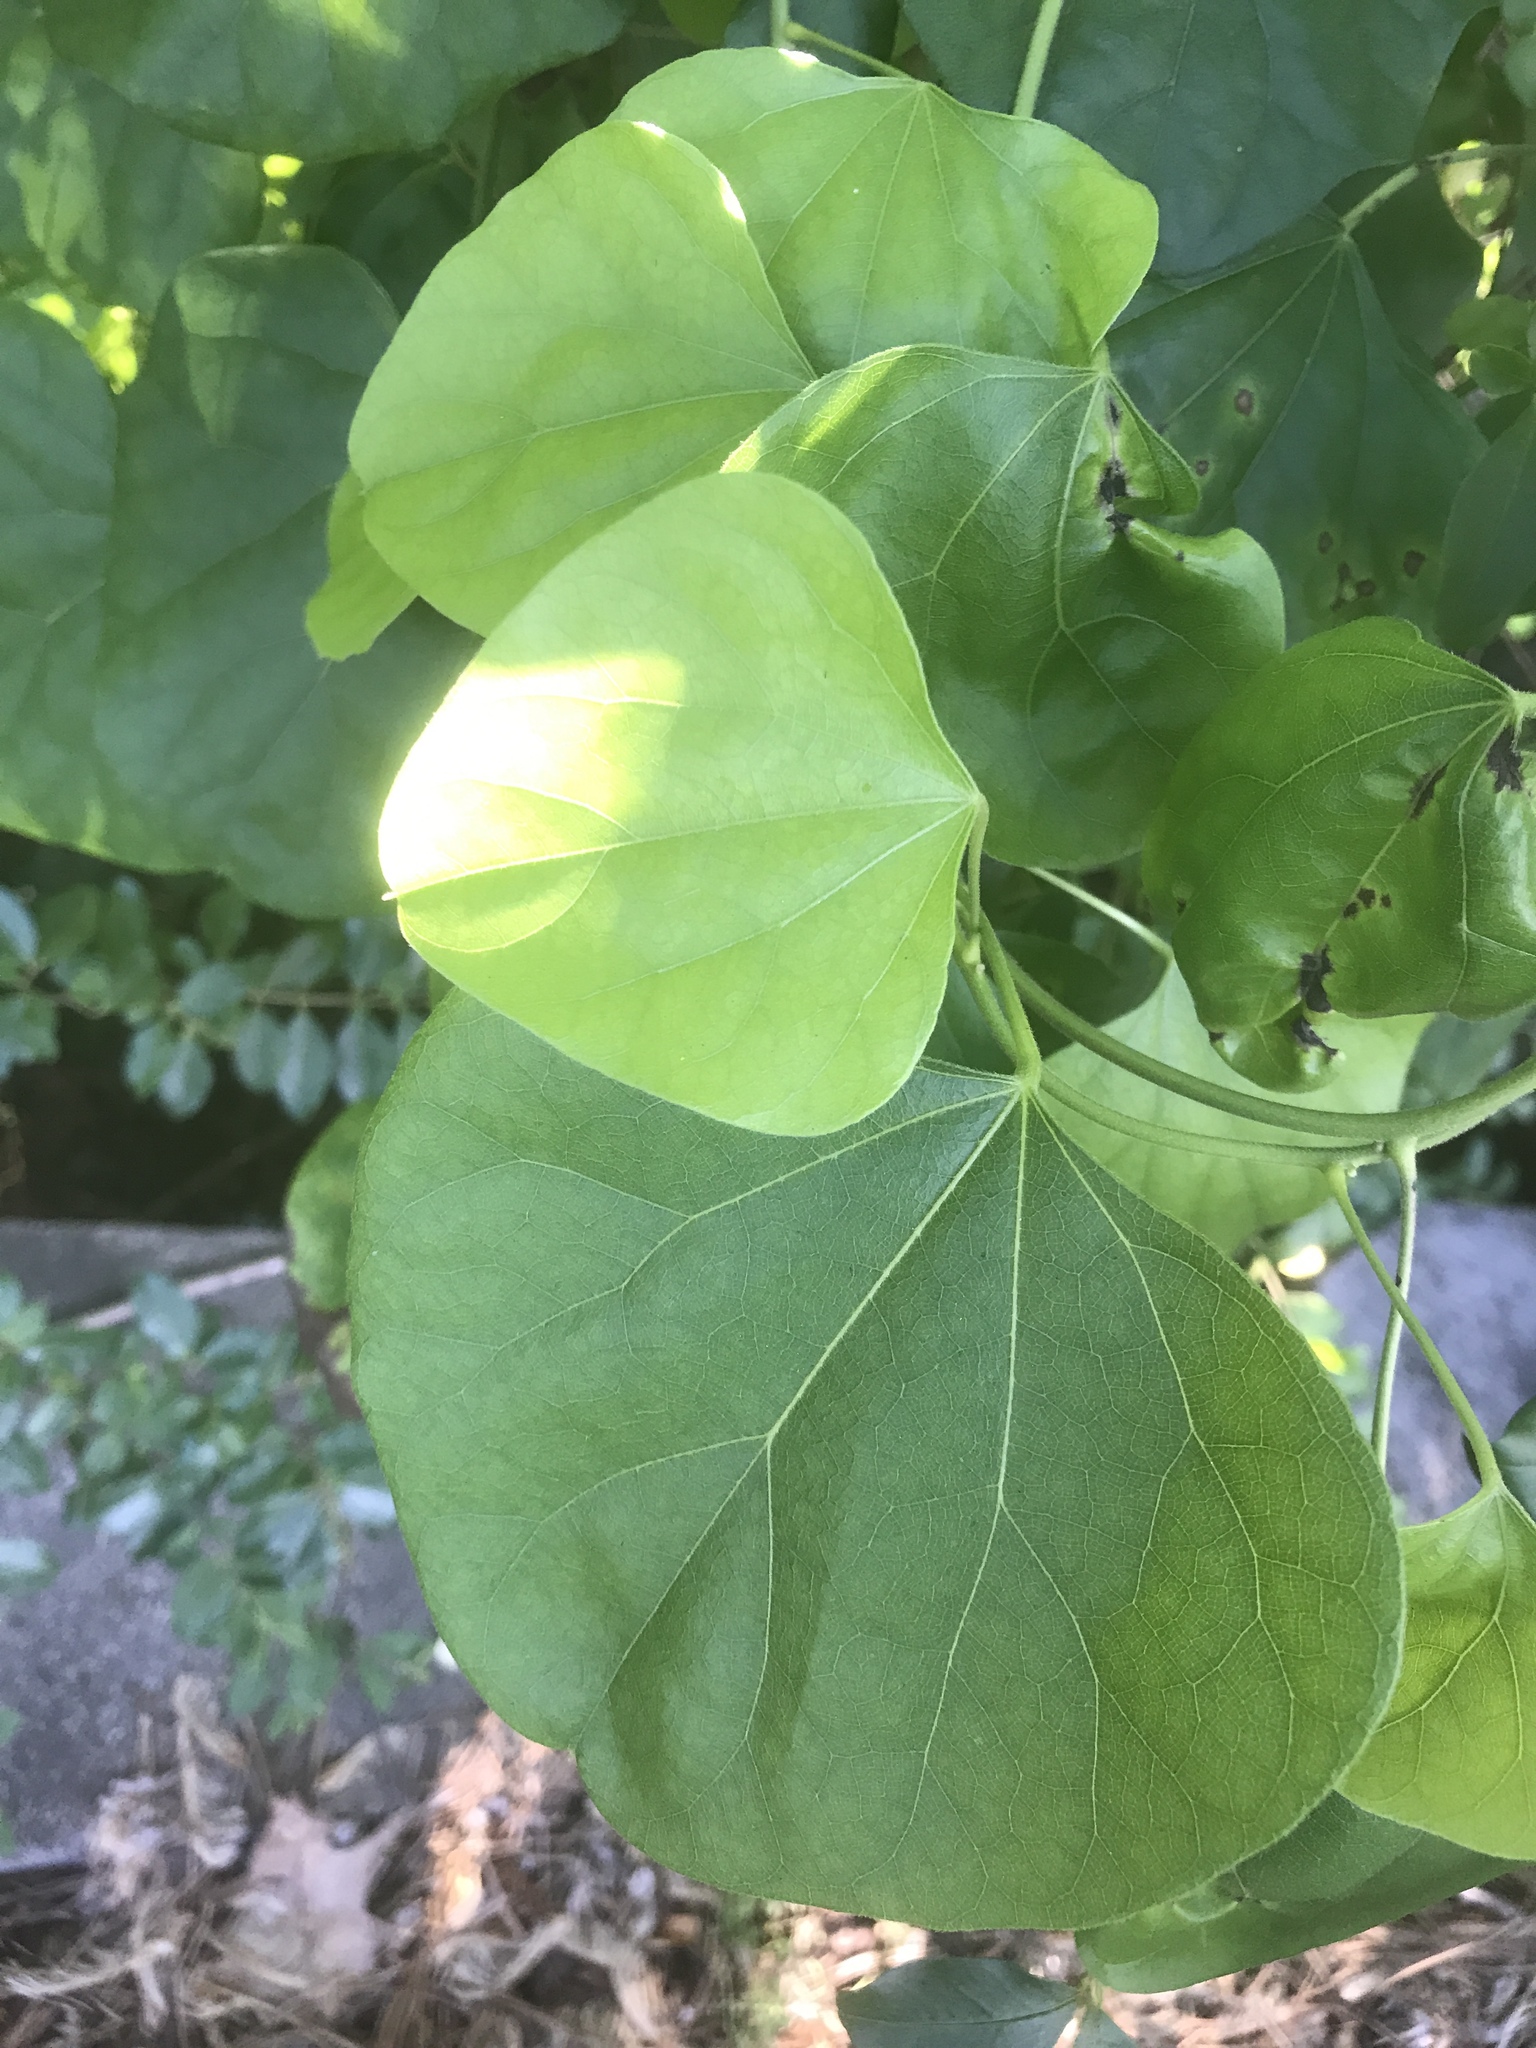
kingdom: Plantae
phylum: Tracheophyta
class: Magnoliopsida
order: Ranunculales
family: Menispermaceae
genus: Cocculus
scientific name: Cocculus carolinus
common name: Carolina moonseed
